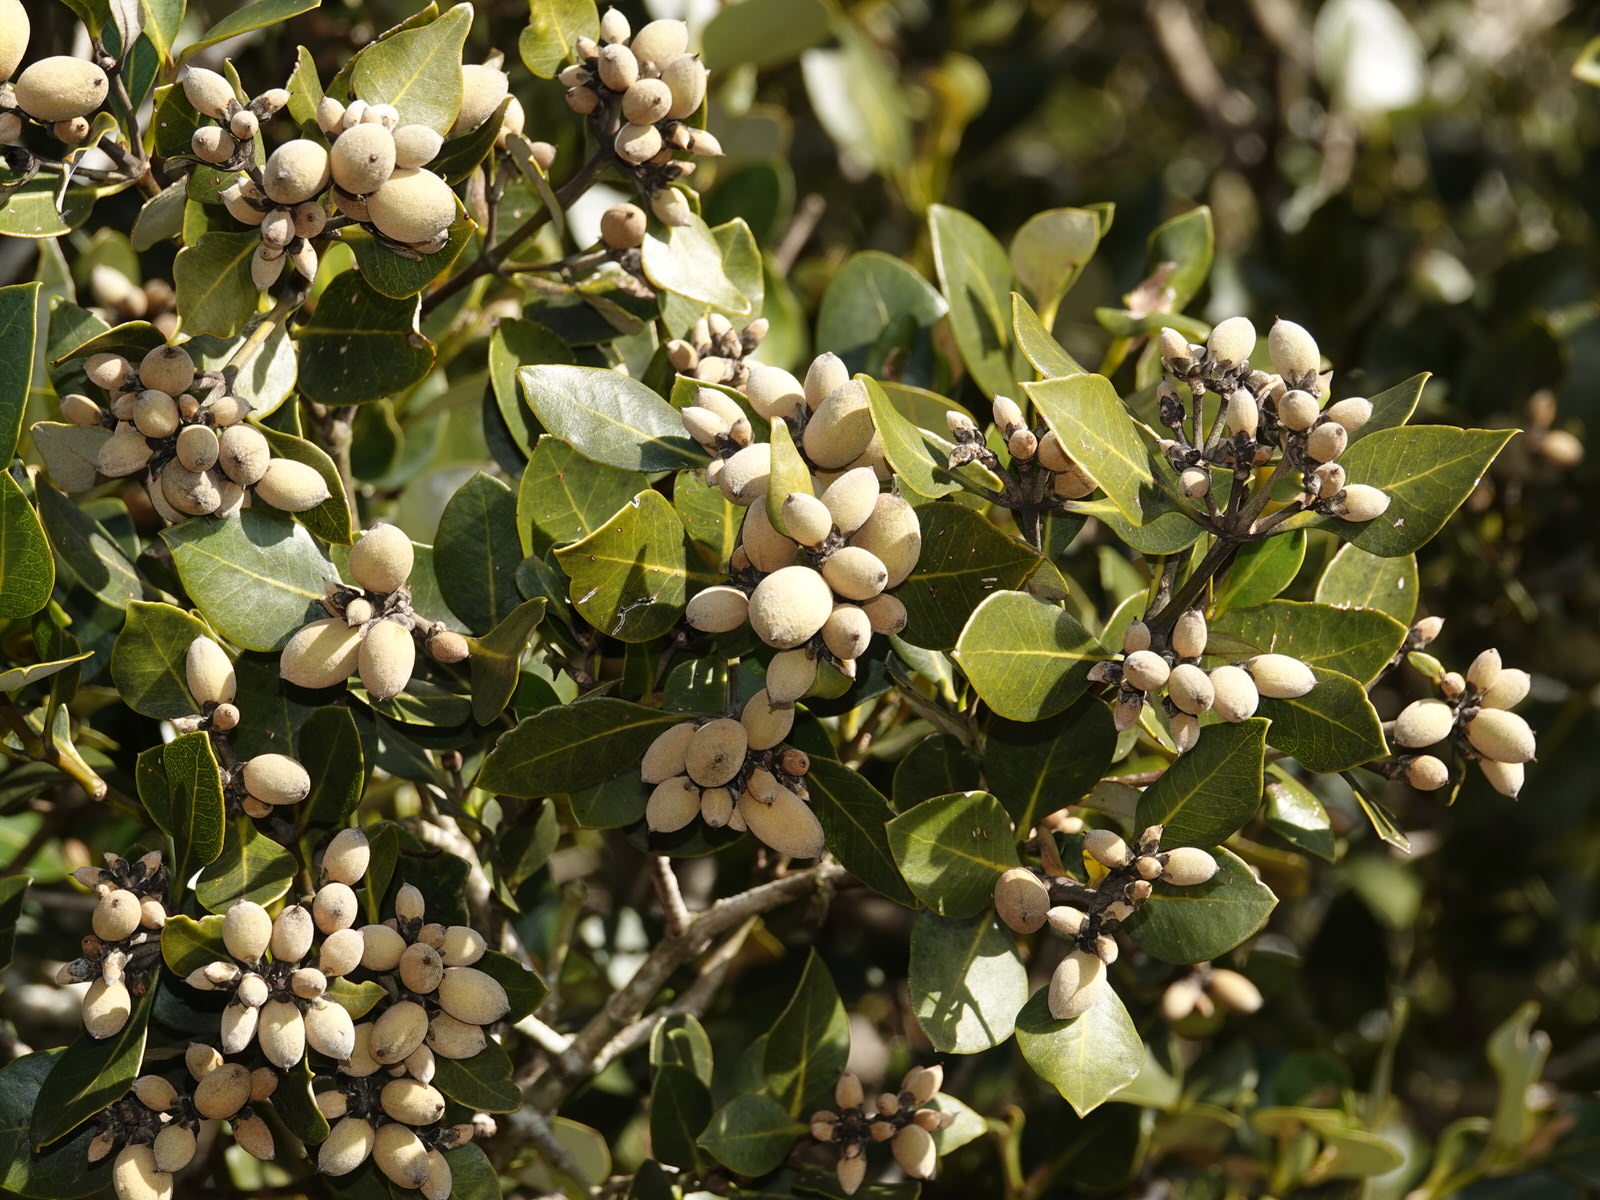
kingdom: Plantae
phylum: Tracheophyta
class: Magnoliopsida
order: Lamiales
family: Acanthaceae
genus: Avicennia
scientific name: Avicennia marina
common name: Gray mangrove
